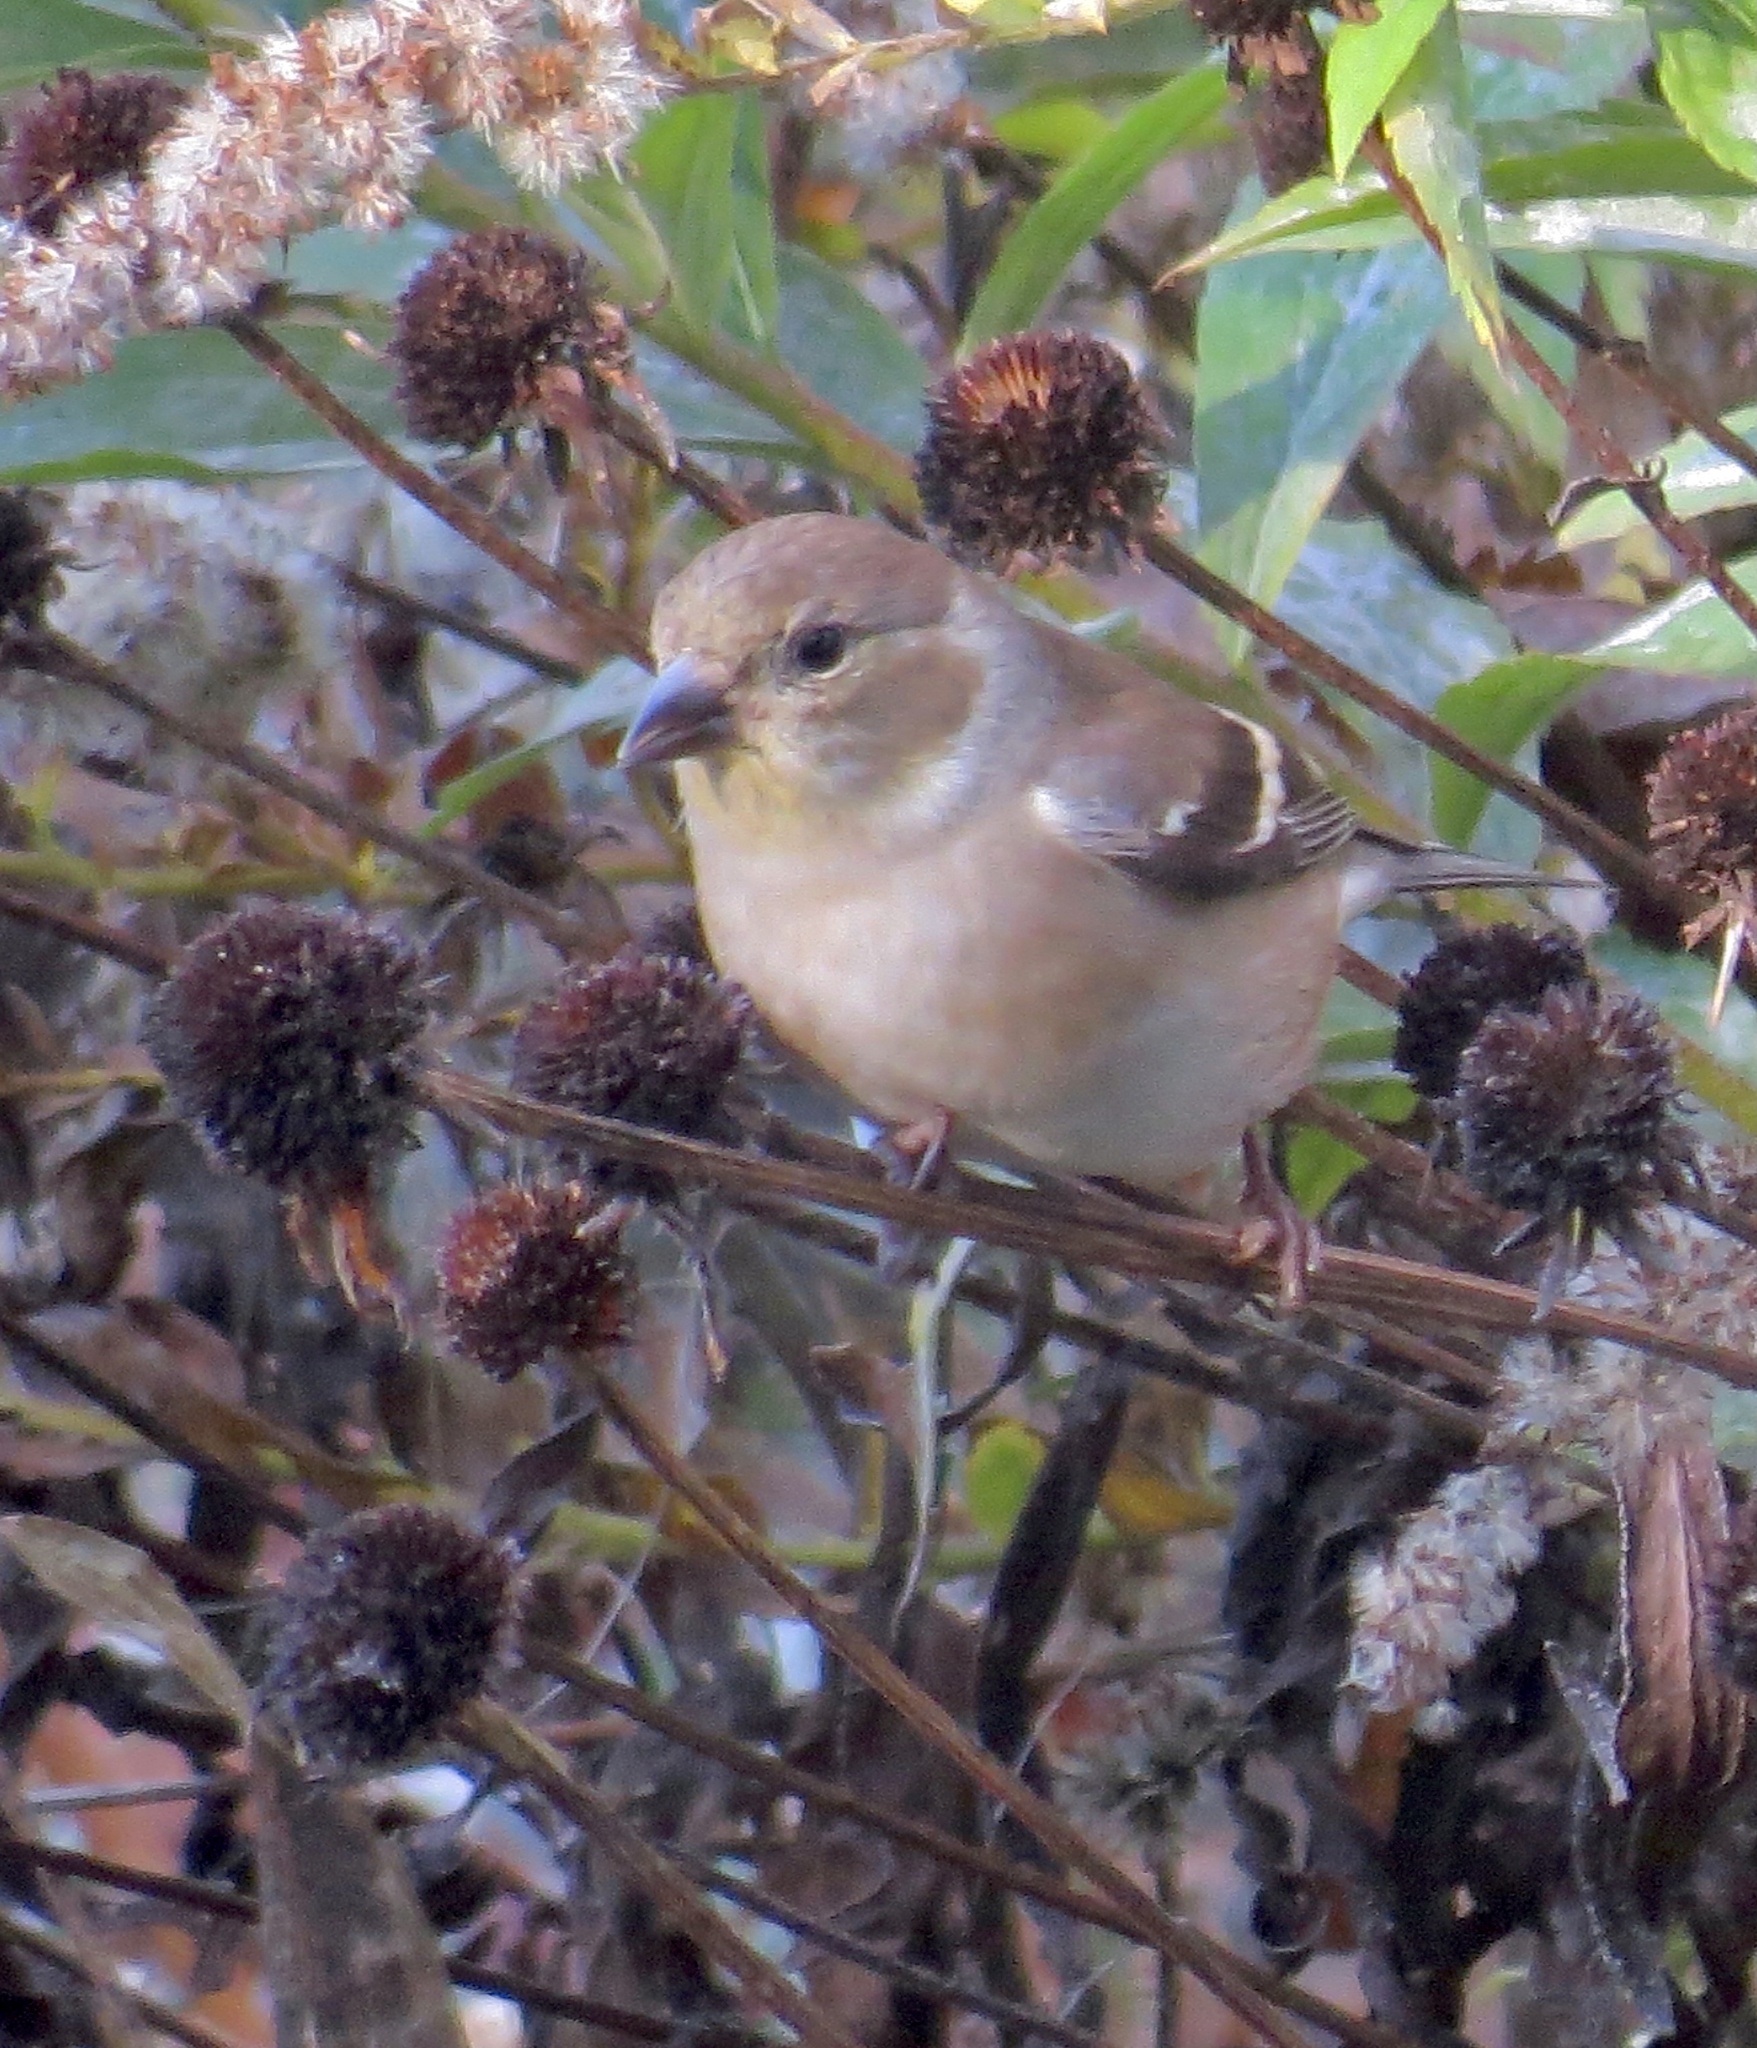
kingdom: Animalia
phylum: Chordata
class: Aves
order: Passeriformes
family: Fringillidae
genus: Spinus
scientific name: Spinus tristis
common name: American goldfinch
